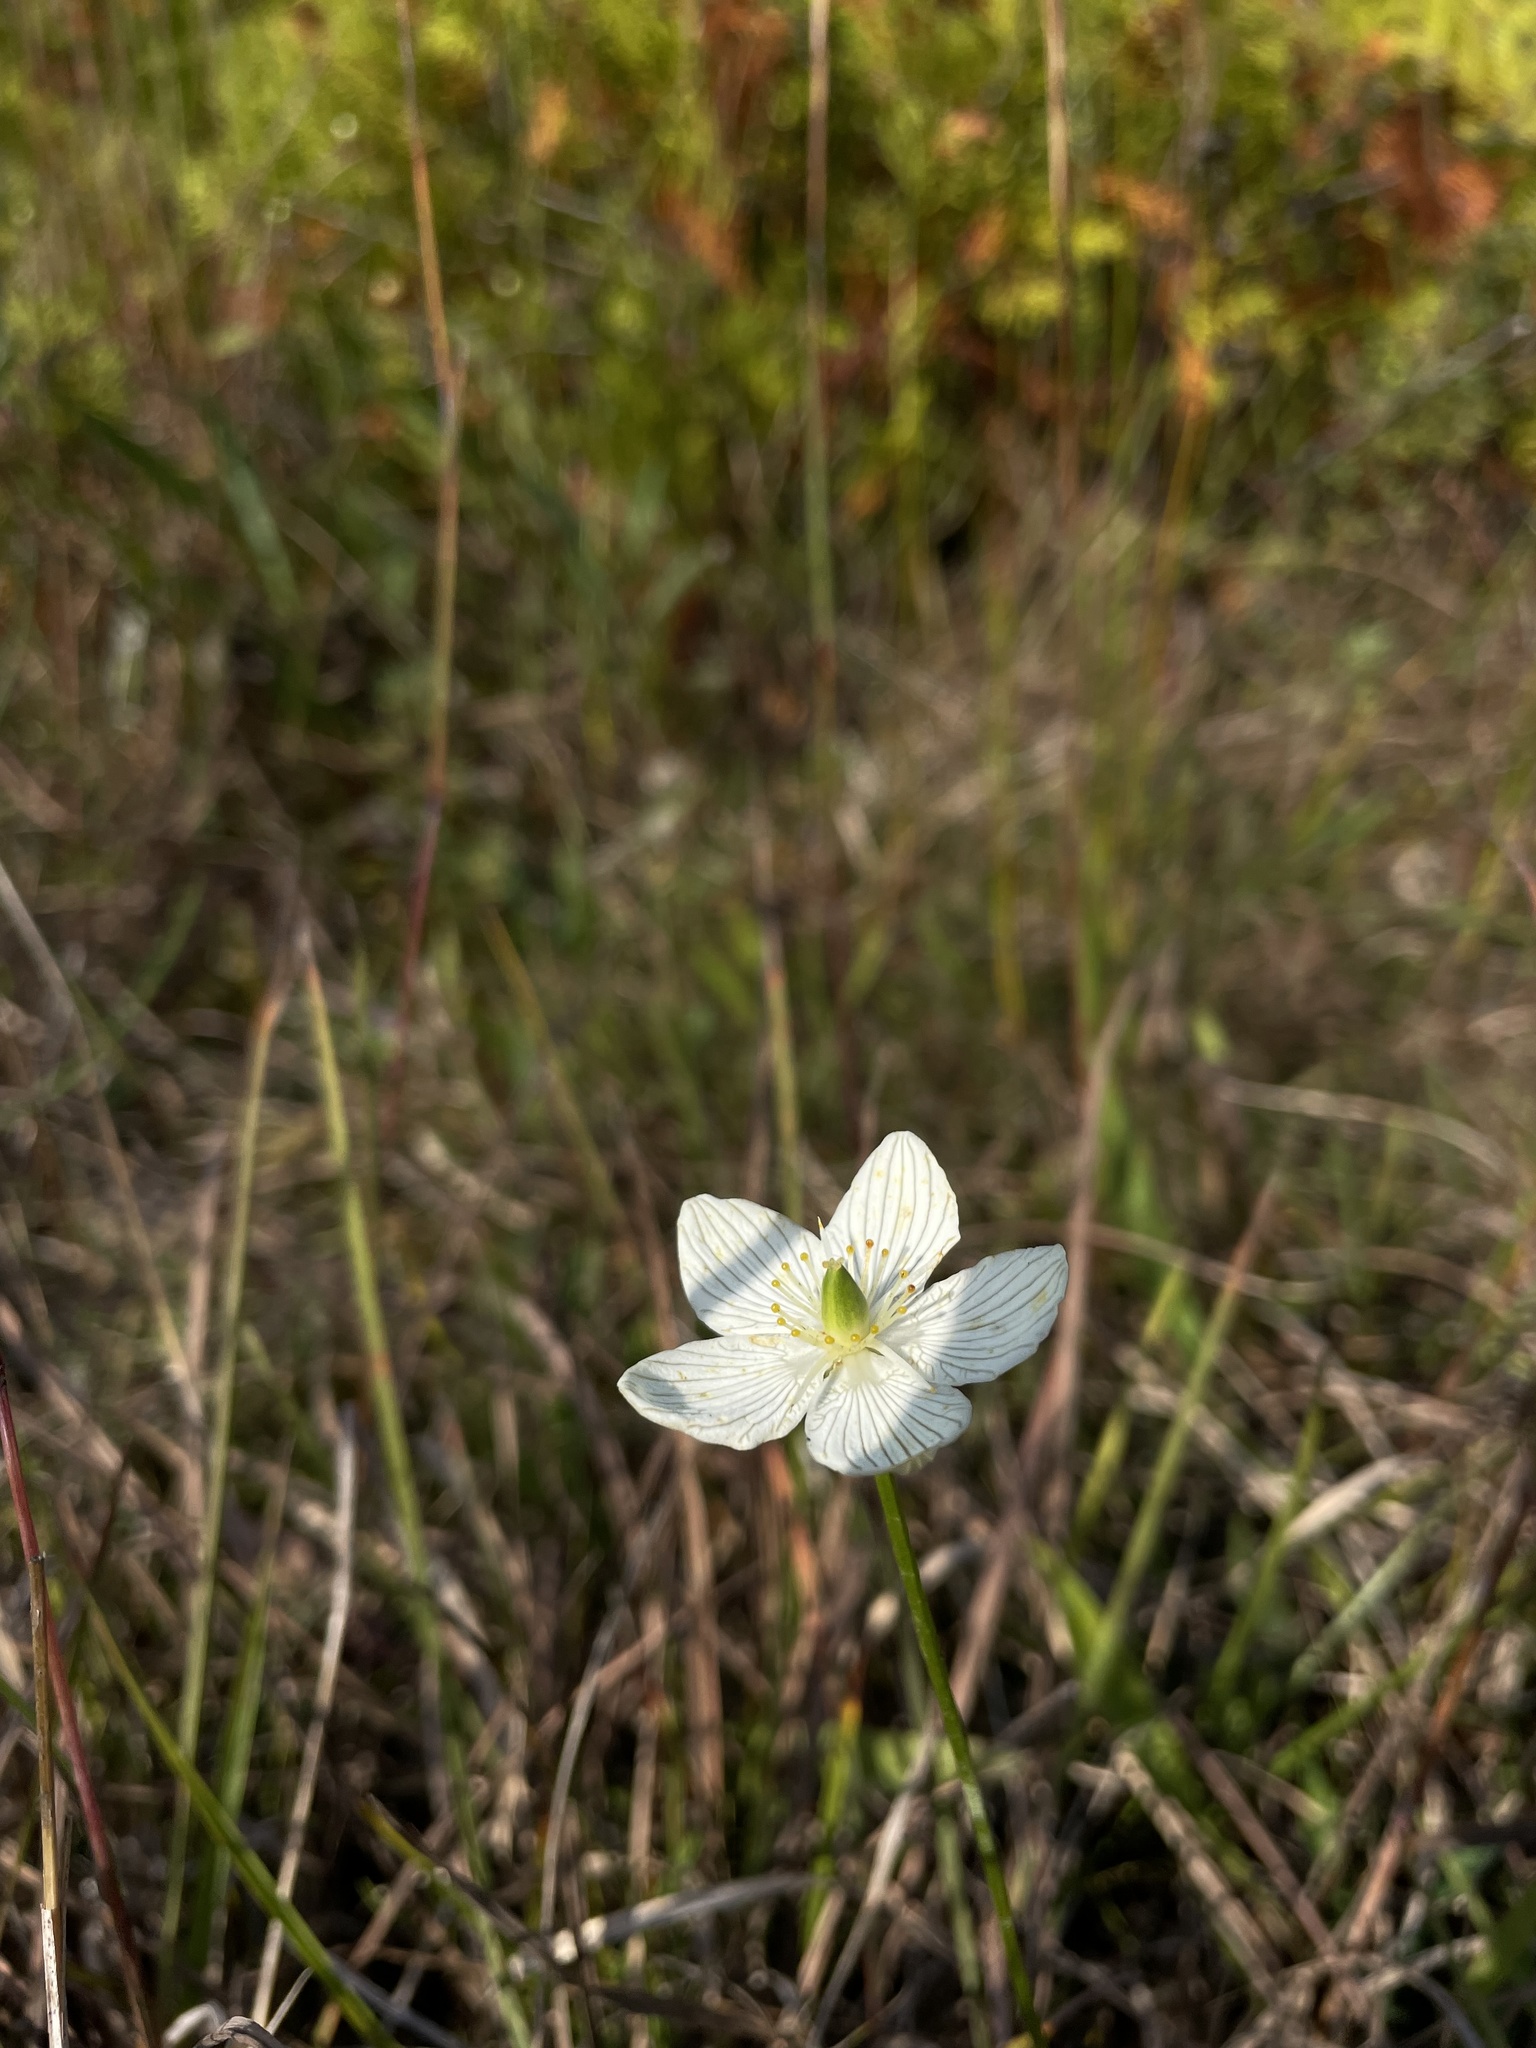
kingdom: Plantae
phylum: Tracheophyta
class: Magnoliopsida
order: Celastrales
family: Parnassiaceae
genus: Parnassia
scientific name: Parnassia glauca
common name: American grass-of-parnassus
